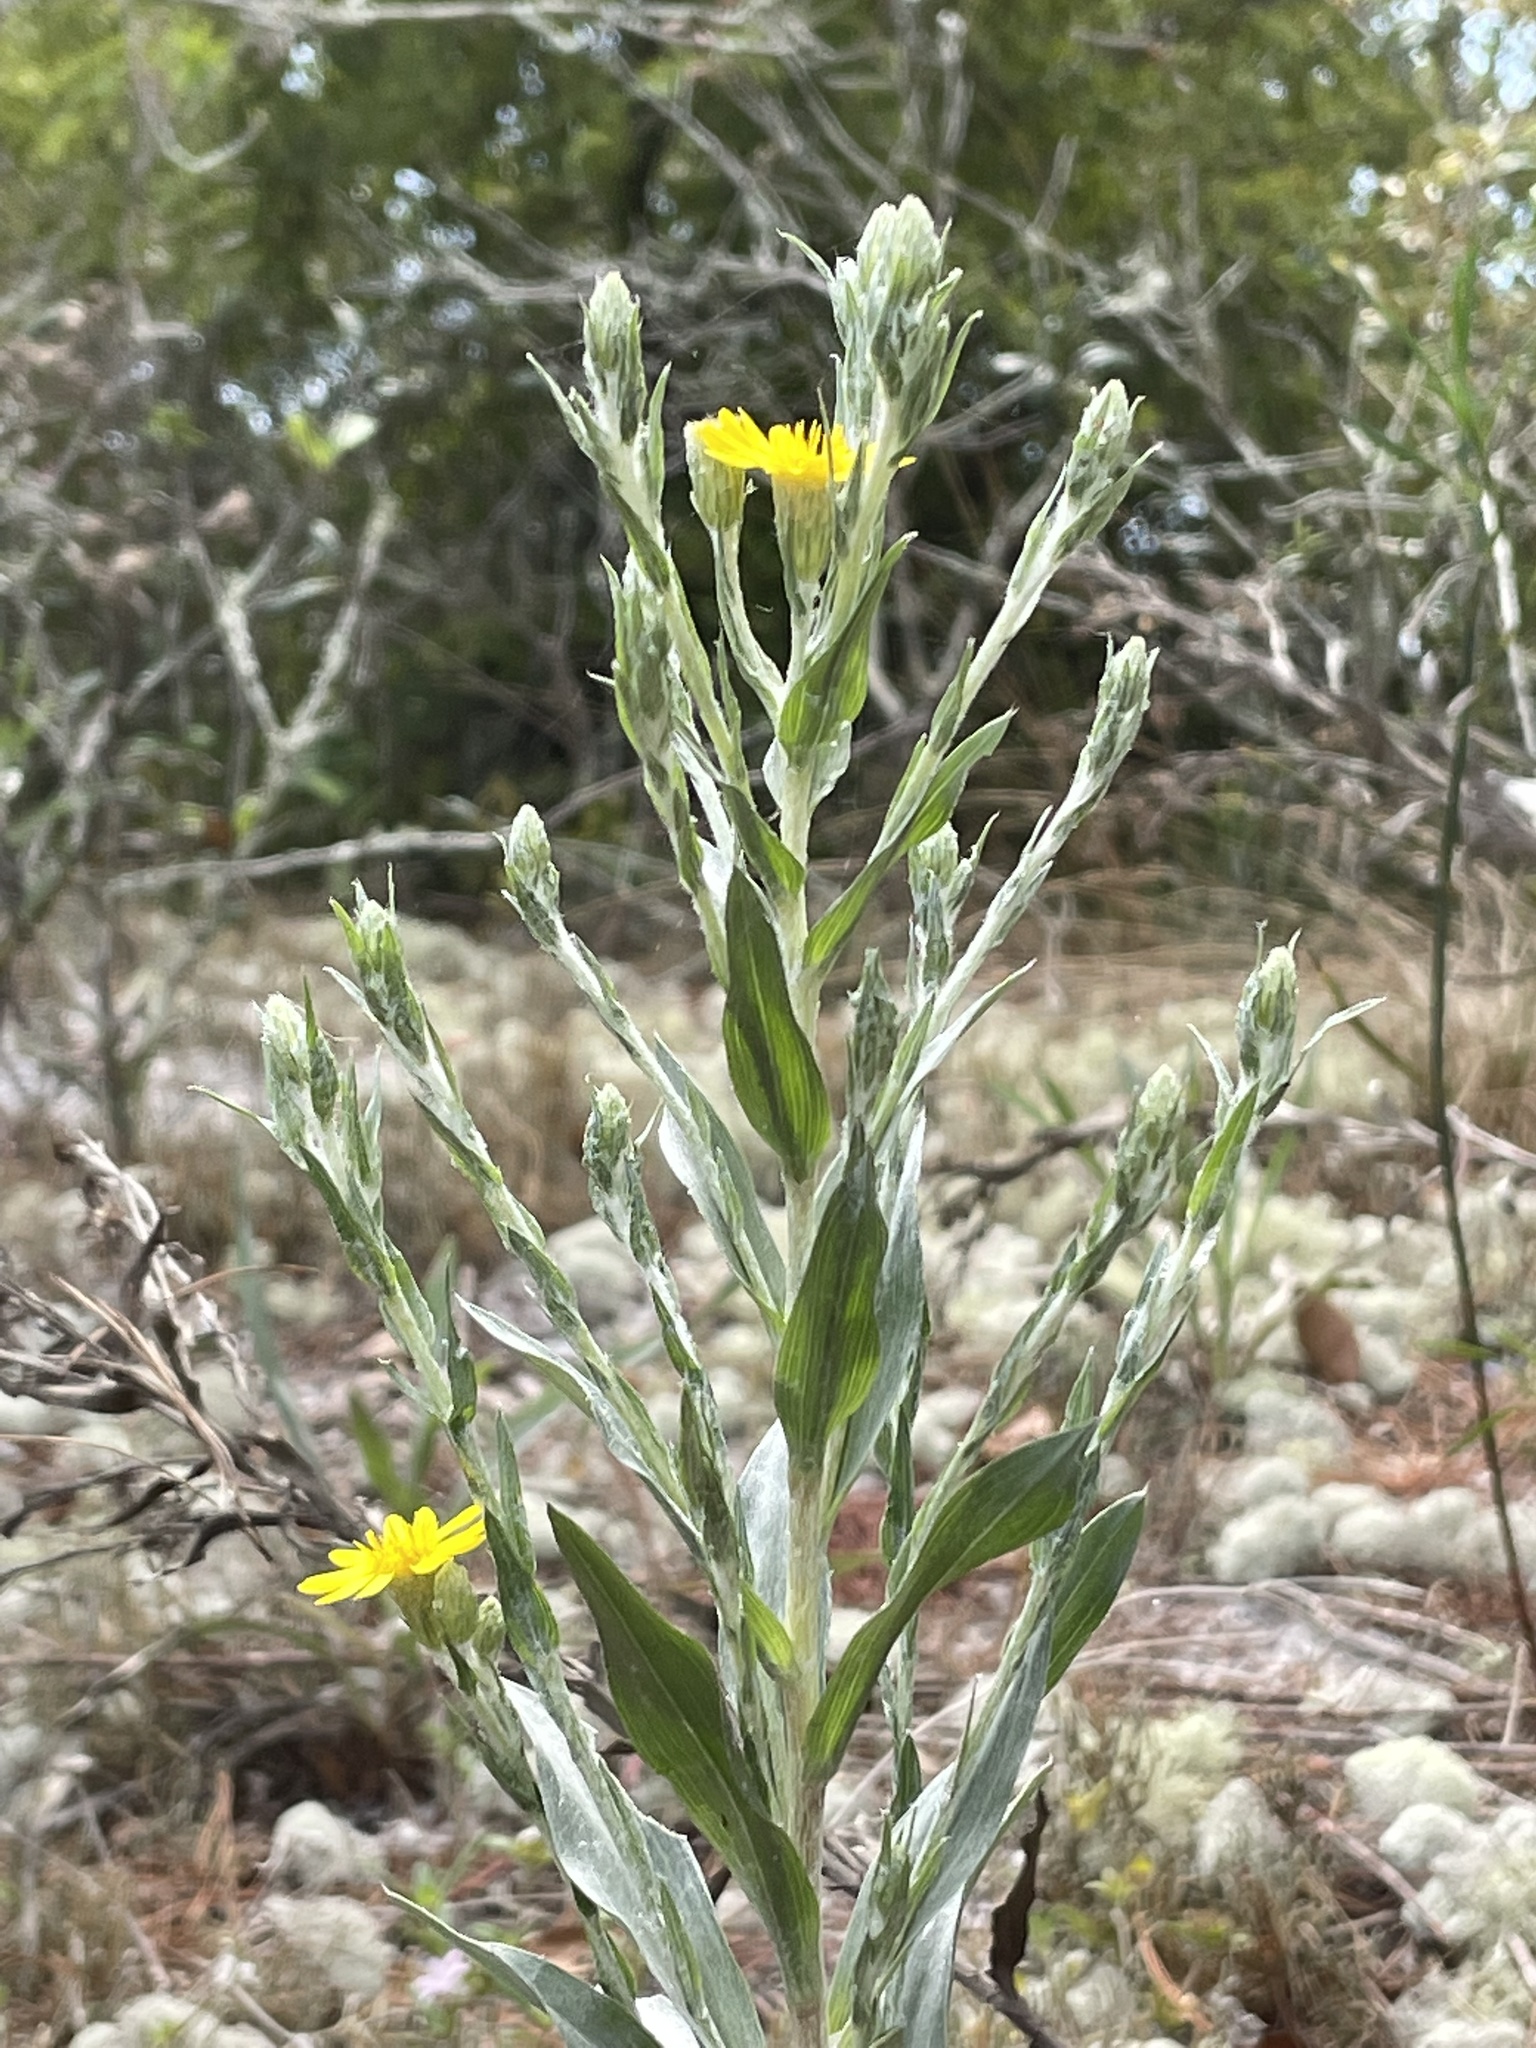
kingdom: Plantae
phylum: Tracheophyta
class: Magnoliopsida
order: Asterales
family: Asteraceae
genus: Pityopsis
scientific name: Pityopsis graminifolia
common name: Grass-leaf golden-aster
